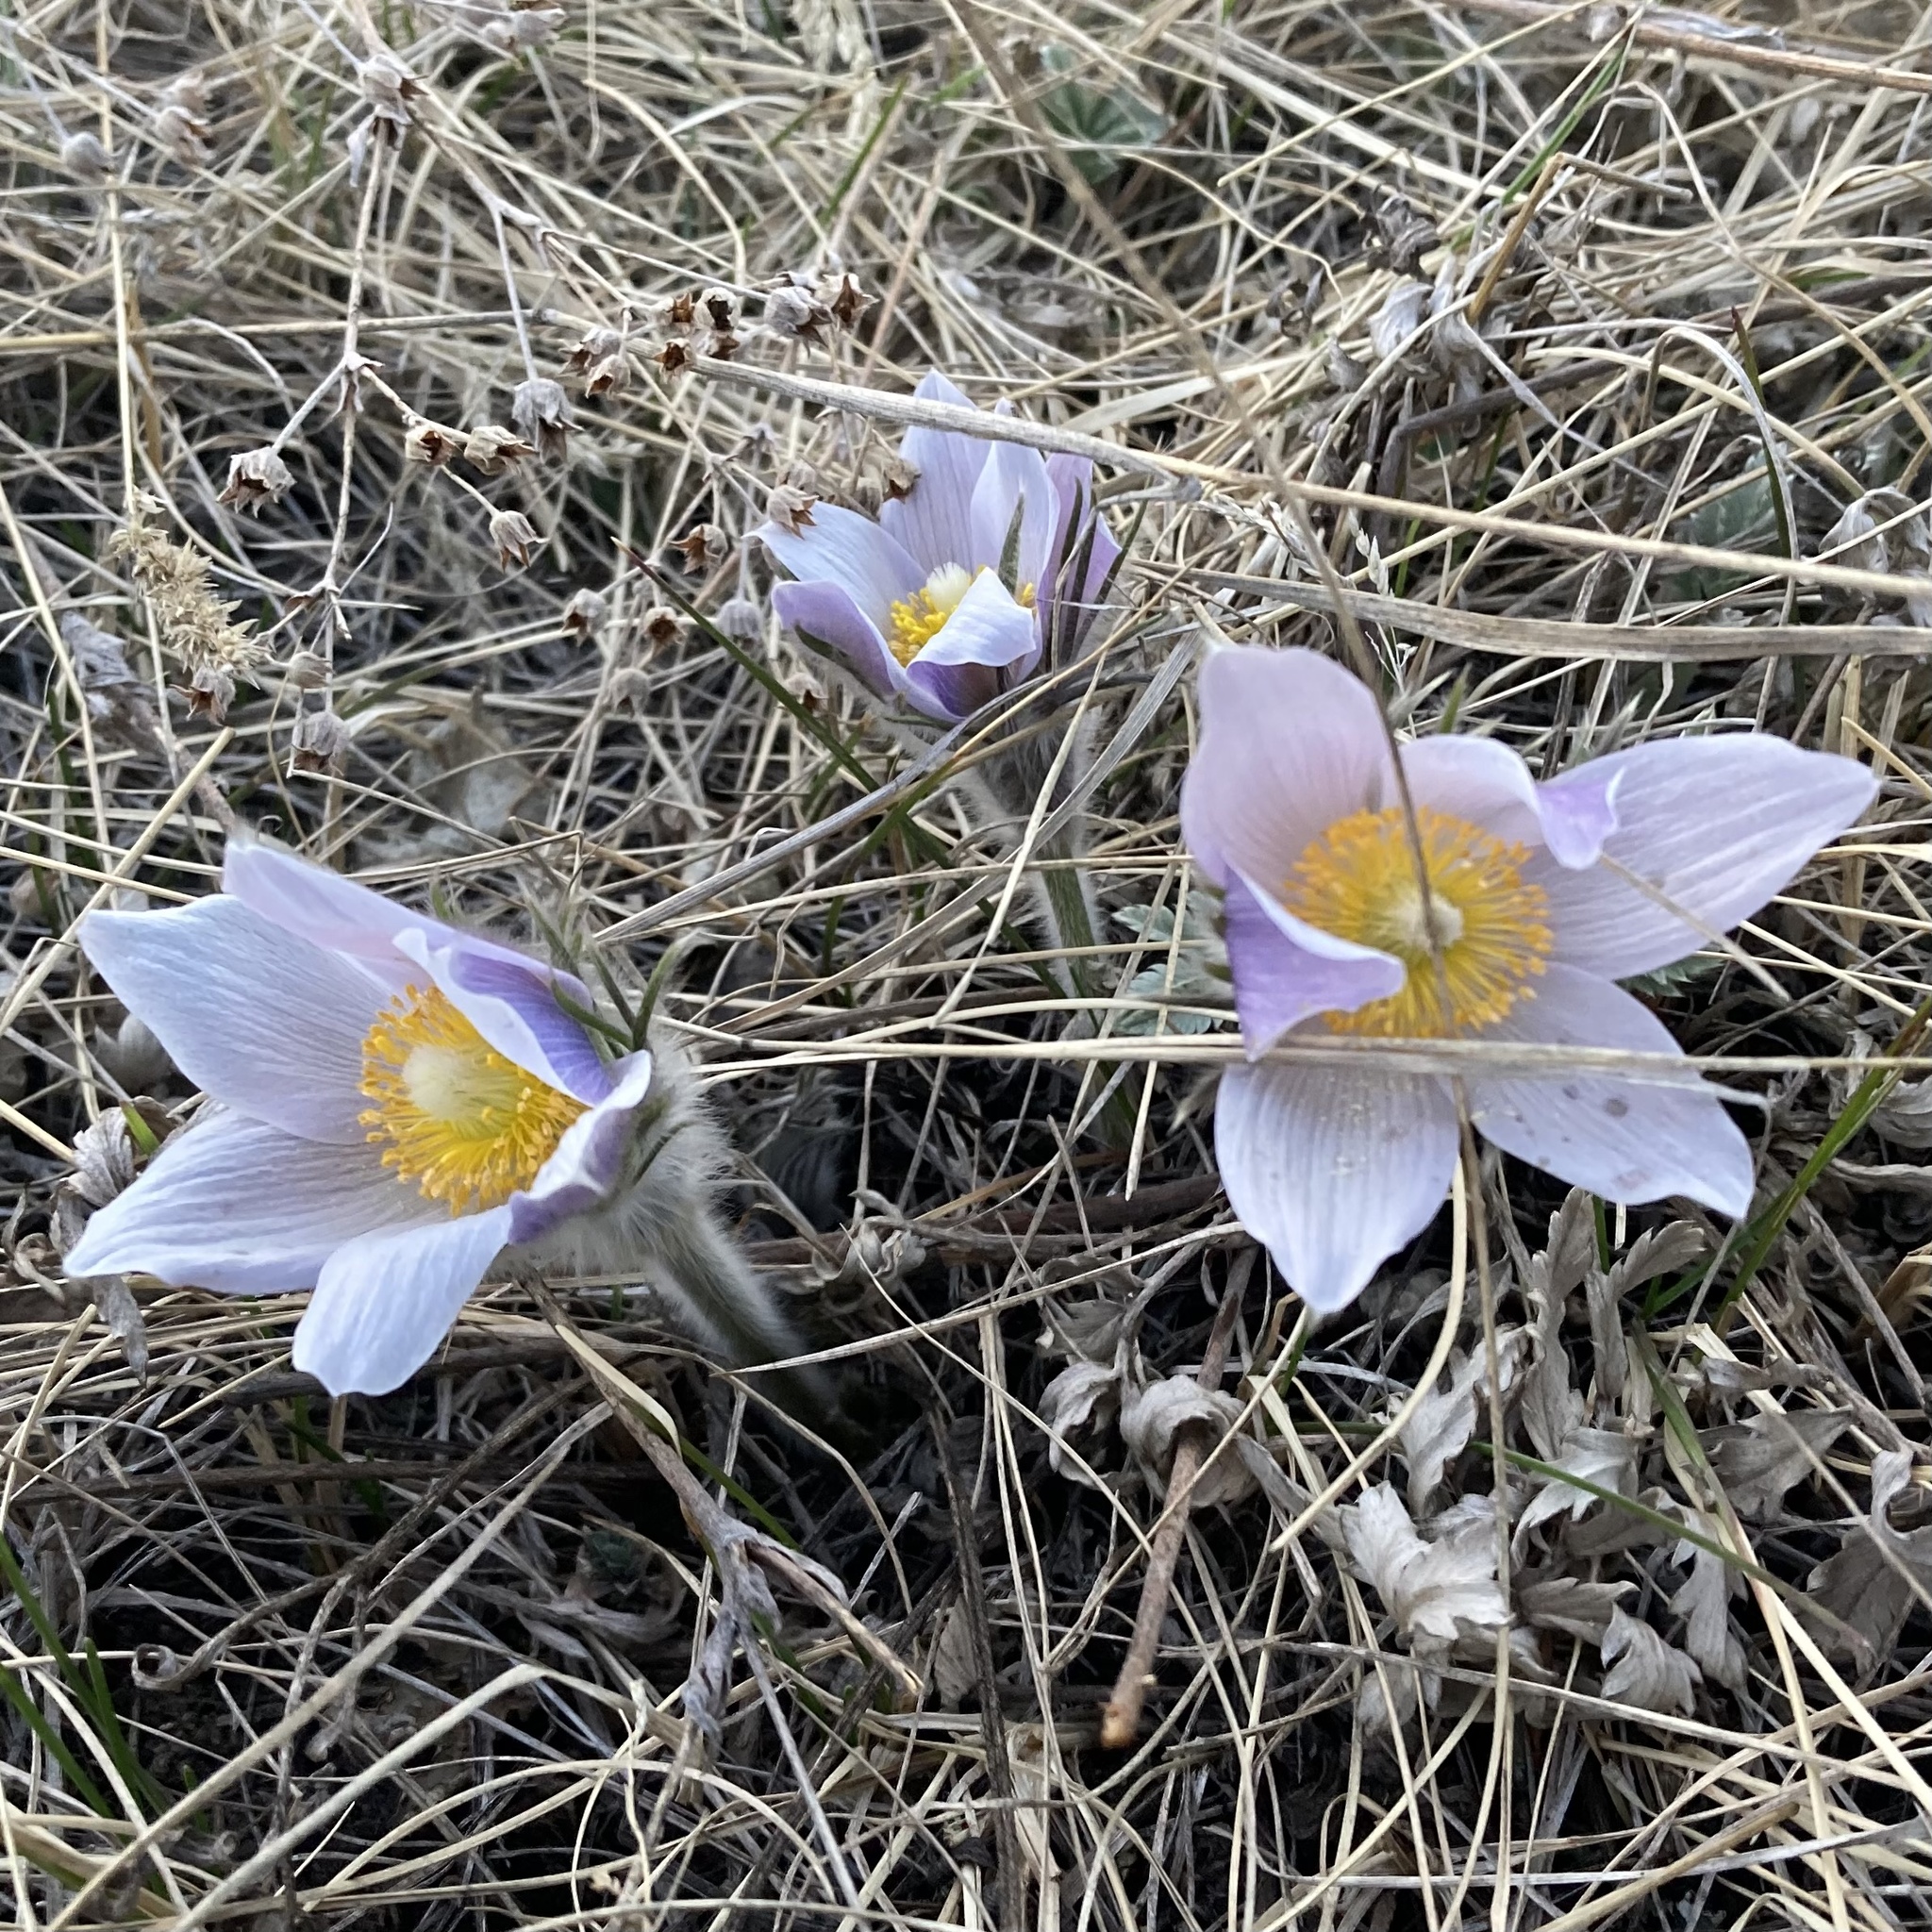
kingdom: Plantae
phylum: Tracheophyta
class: Magnoliopsida
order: Ranunculales
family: Ranunculaceae
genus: Pulsatilla
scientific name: Pulsatilla nuttalliana
